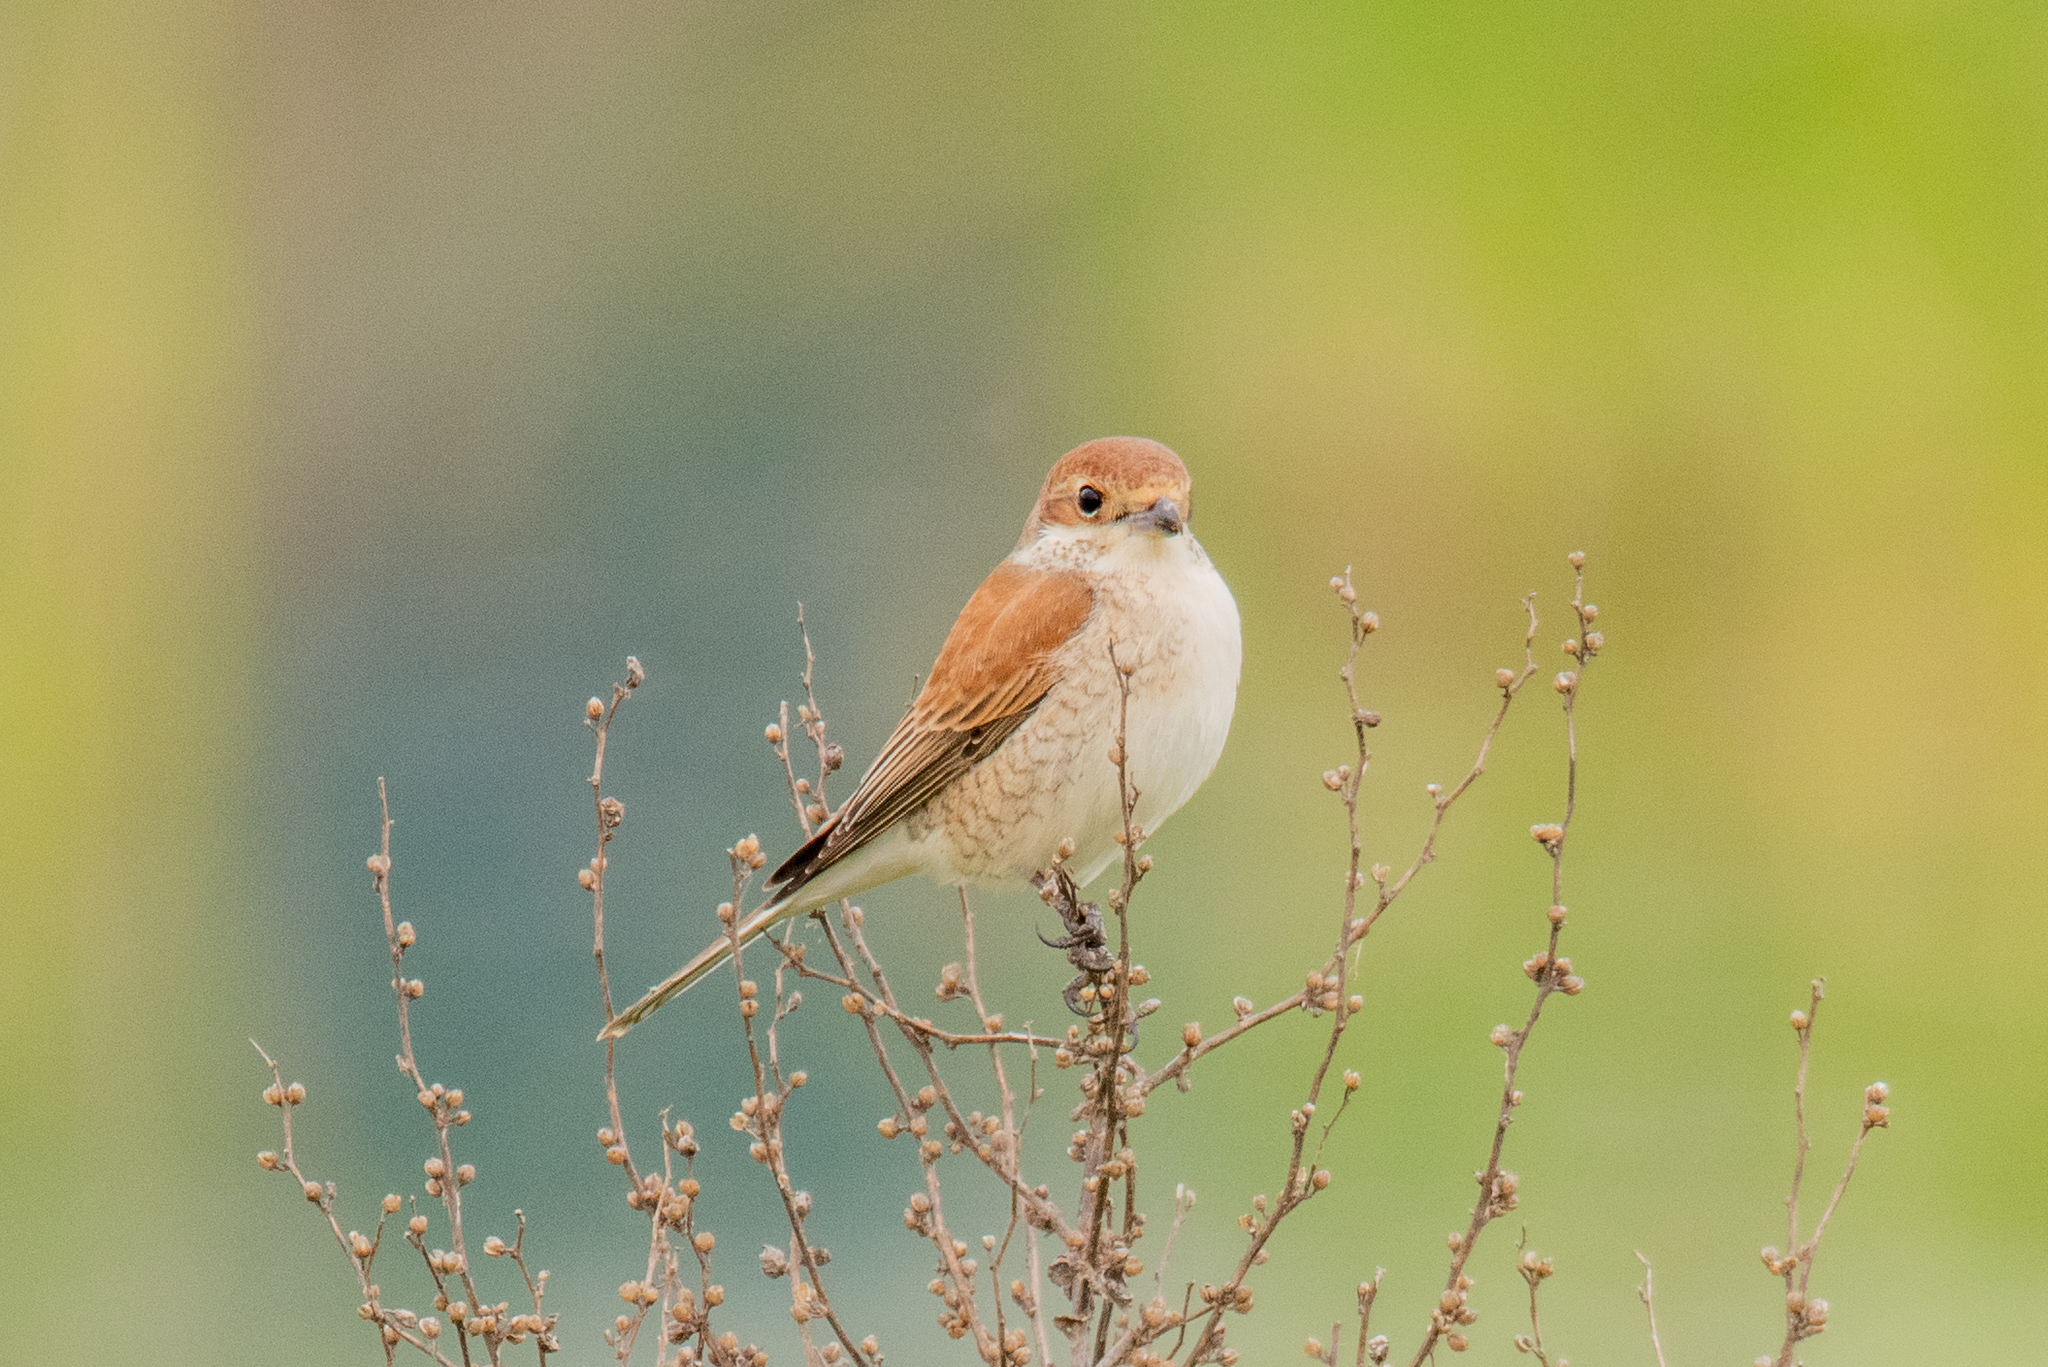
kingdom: Animalia
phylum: Chordata
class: Aves
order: Passeriformes
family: Laniidae
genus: Lanius
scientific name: Lanius collurio
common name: Red-backed shrike
